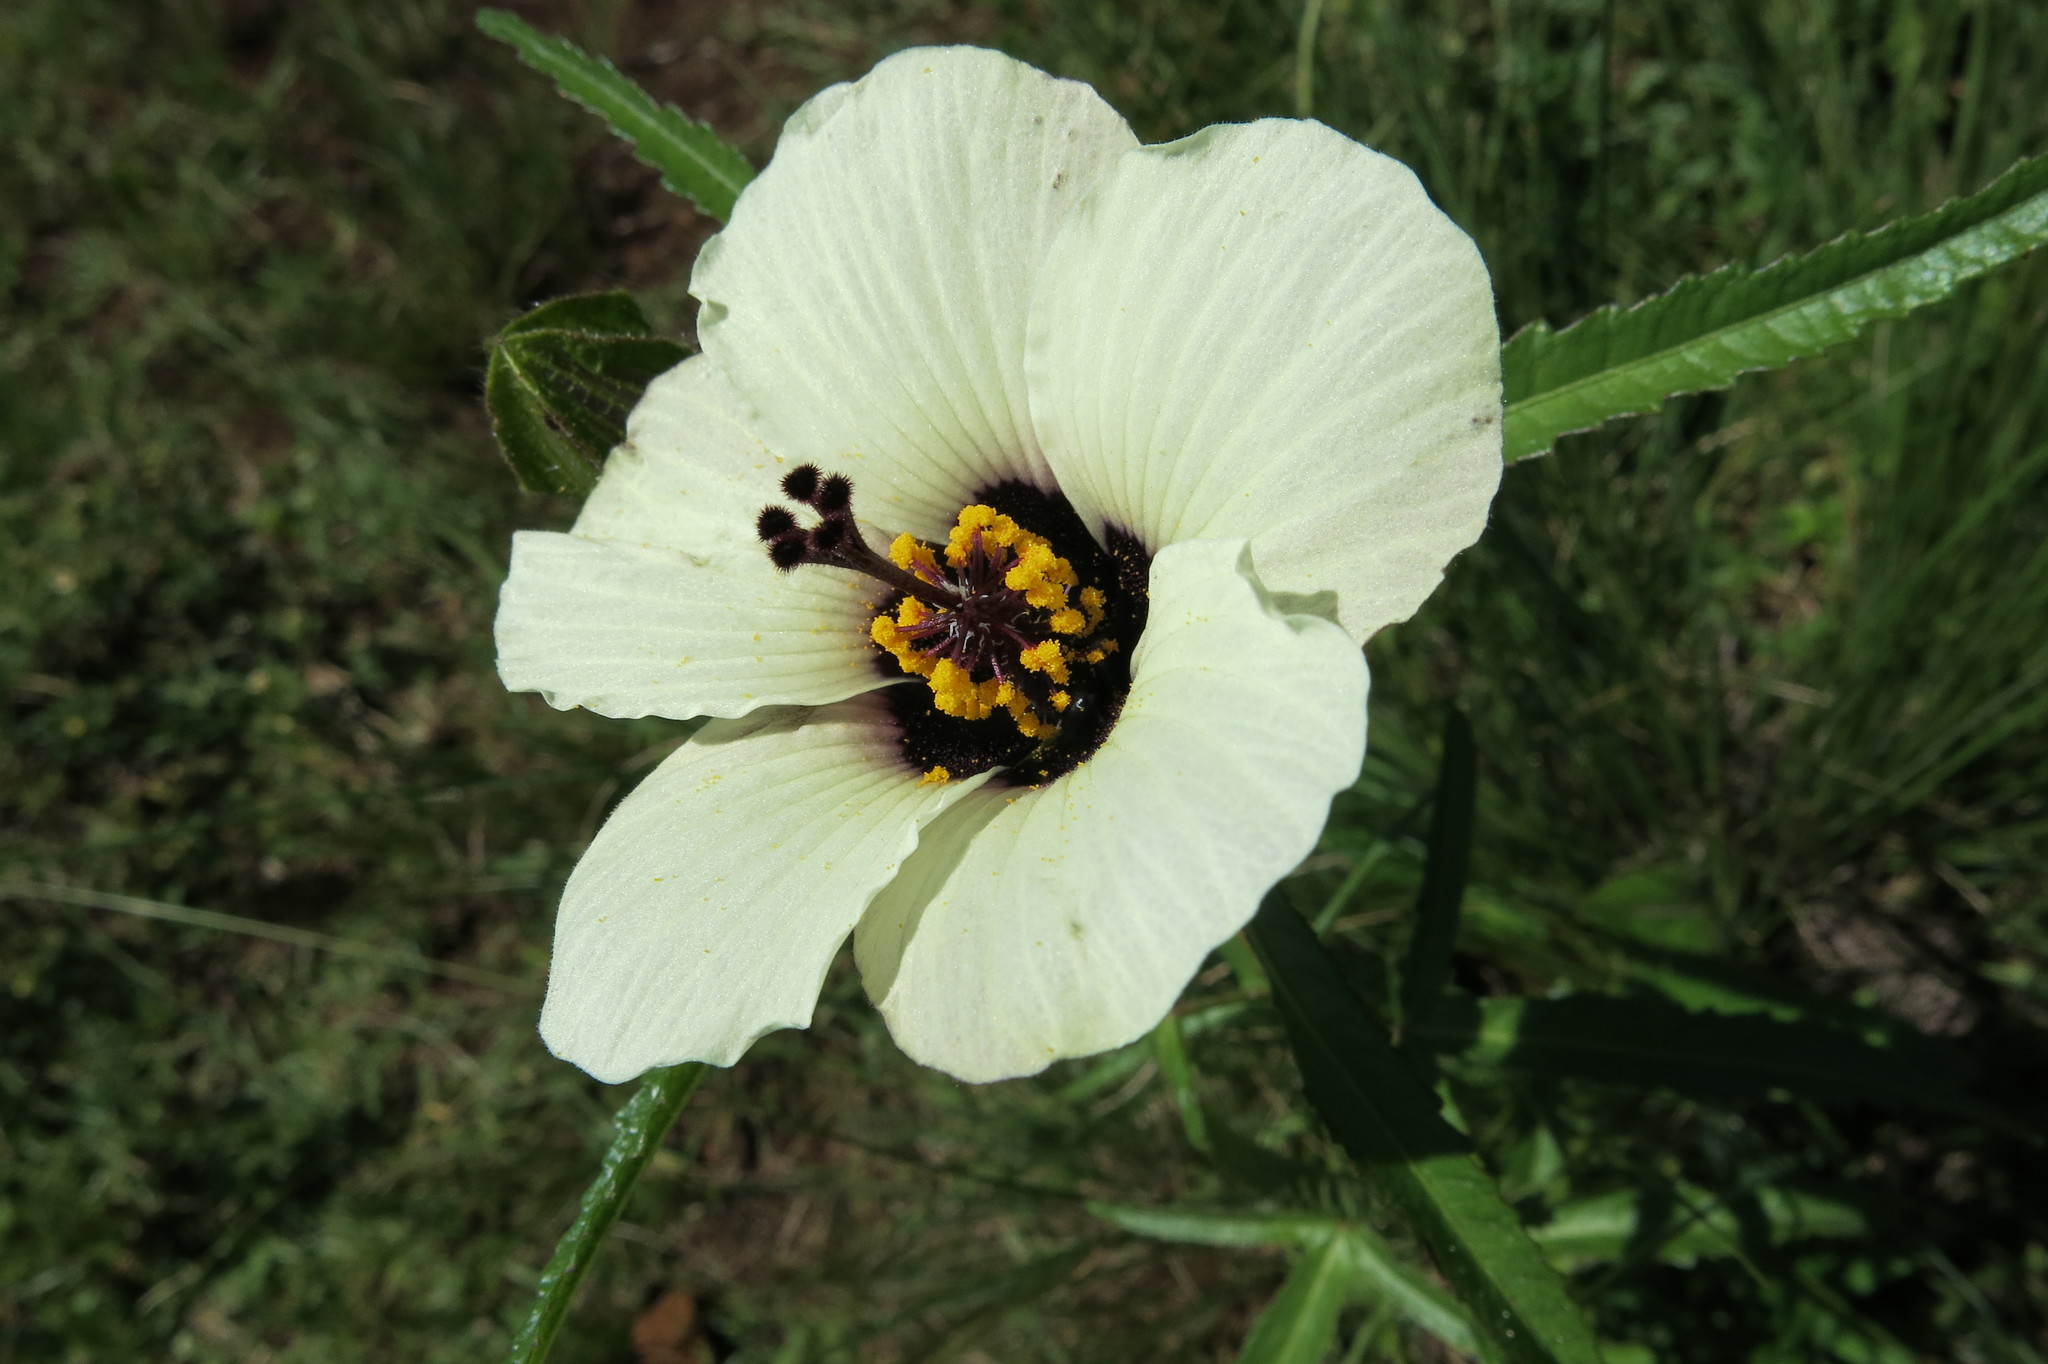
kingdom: Plantae
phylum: Tracheophyta
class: Magnoliopsida
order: Malvales
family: Malvaceae
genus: Hibiscus
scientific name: Hibiscus trionum
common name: Bladder ketmia
